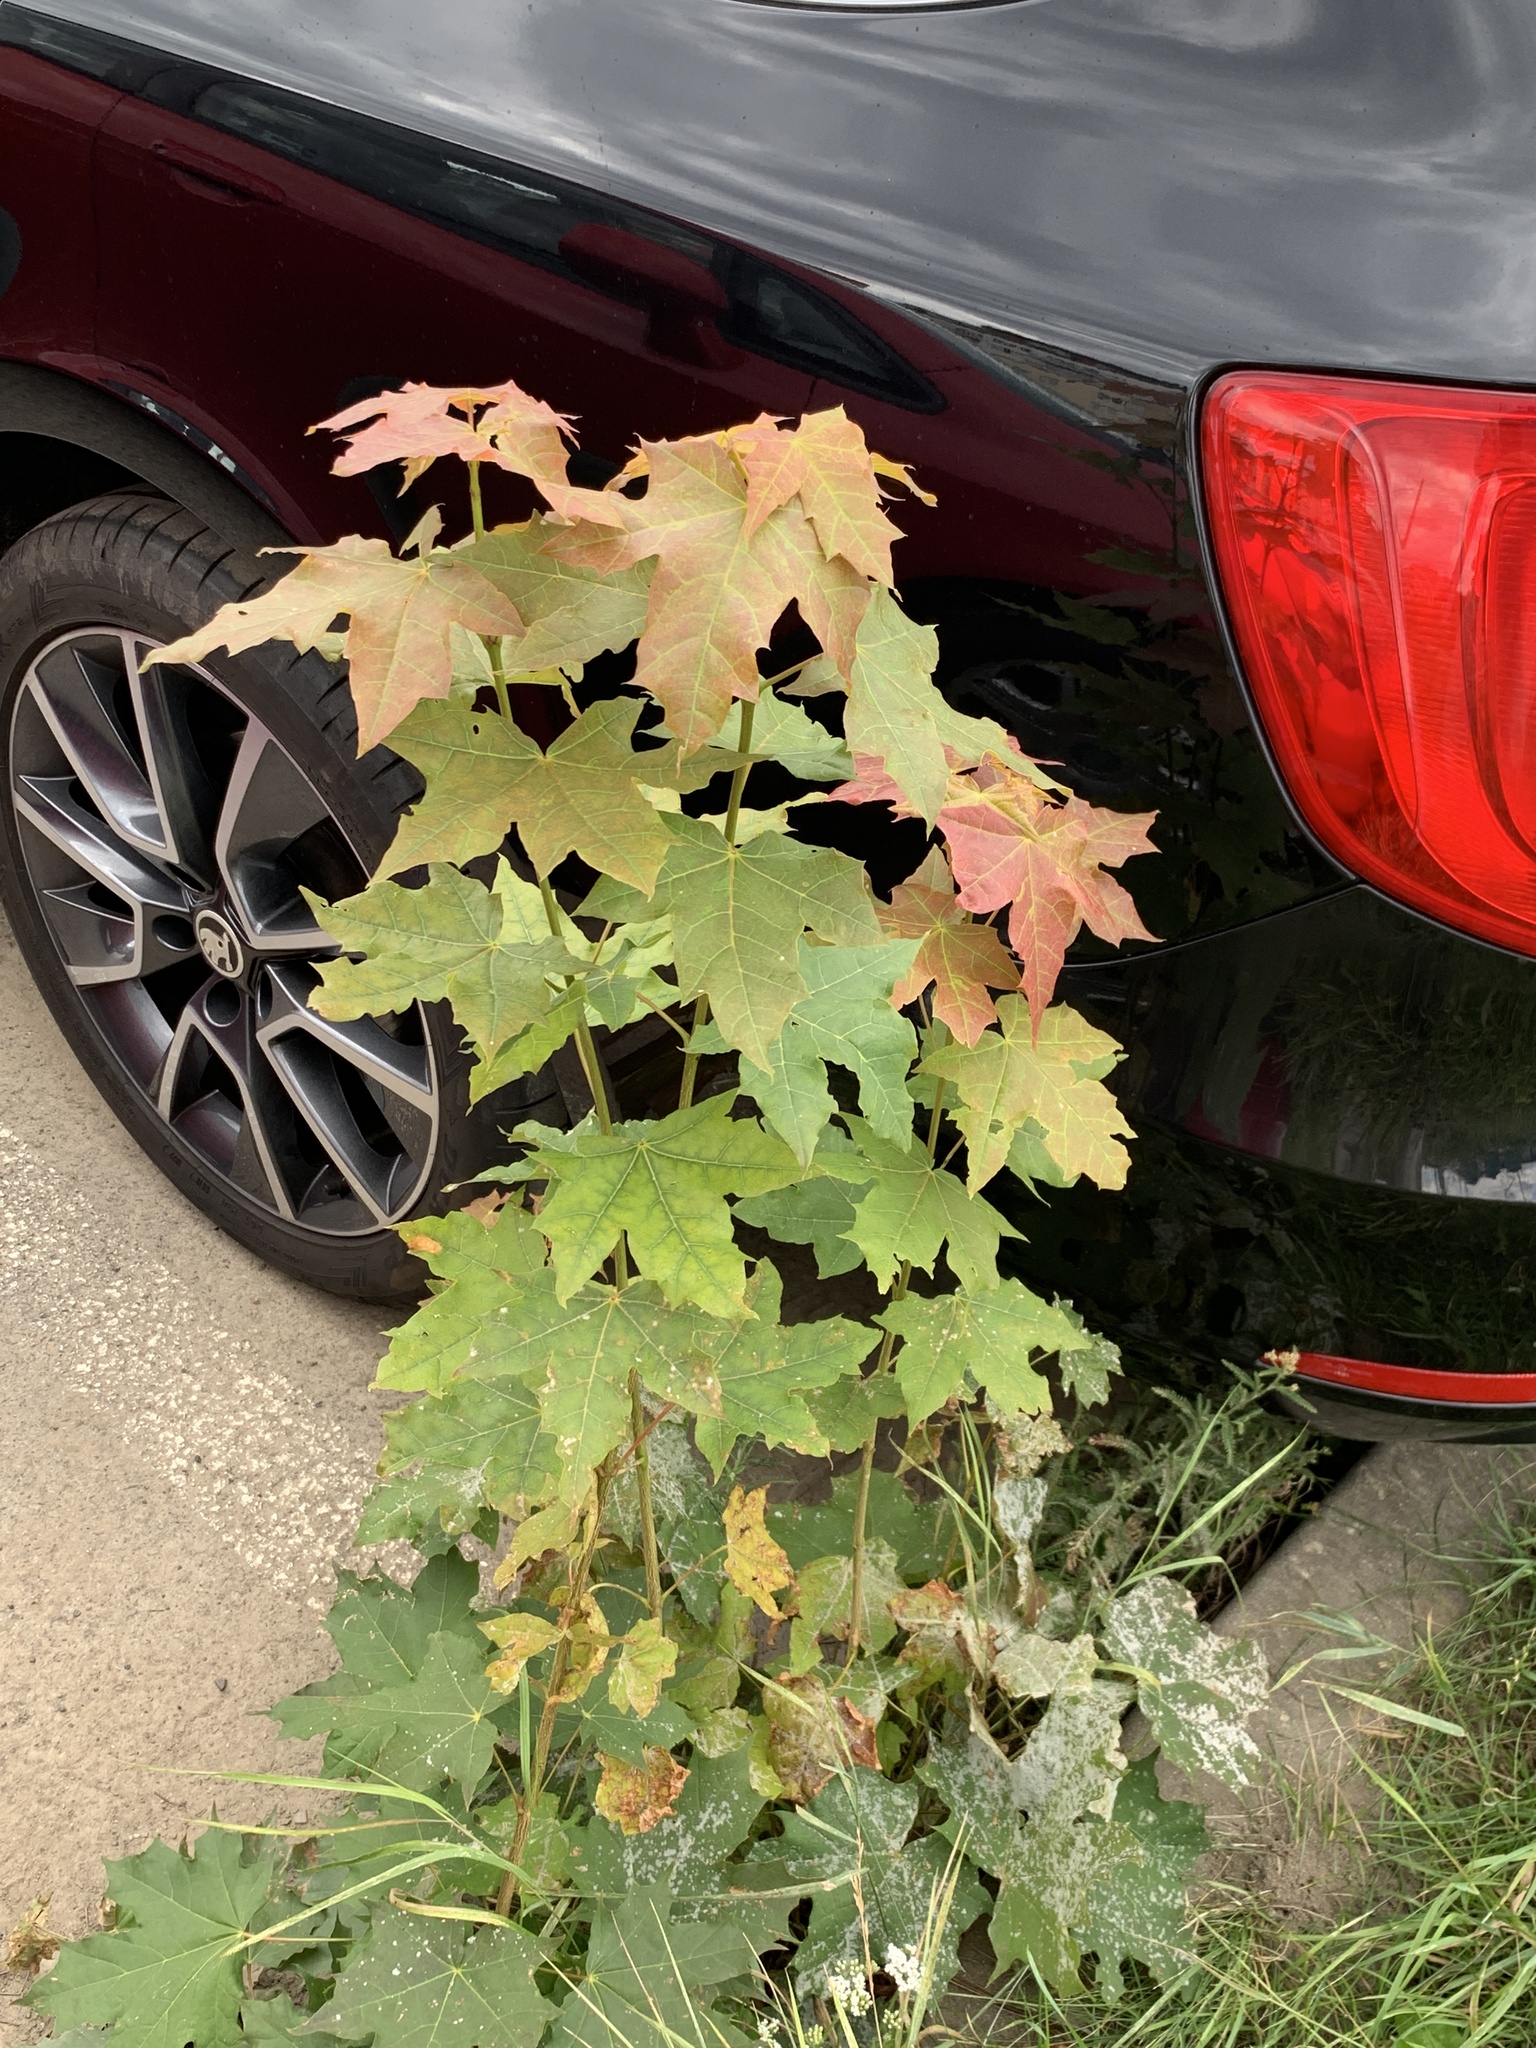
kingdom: Plantae
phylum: Tracheophyta
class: Magnoliopsida
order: Sapindales
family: Sapindaceae
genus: Acer
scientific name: Acer platanoides
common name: Norway maple
